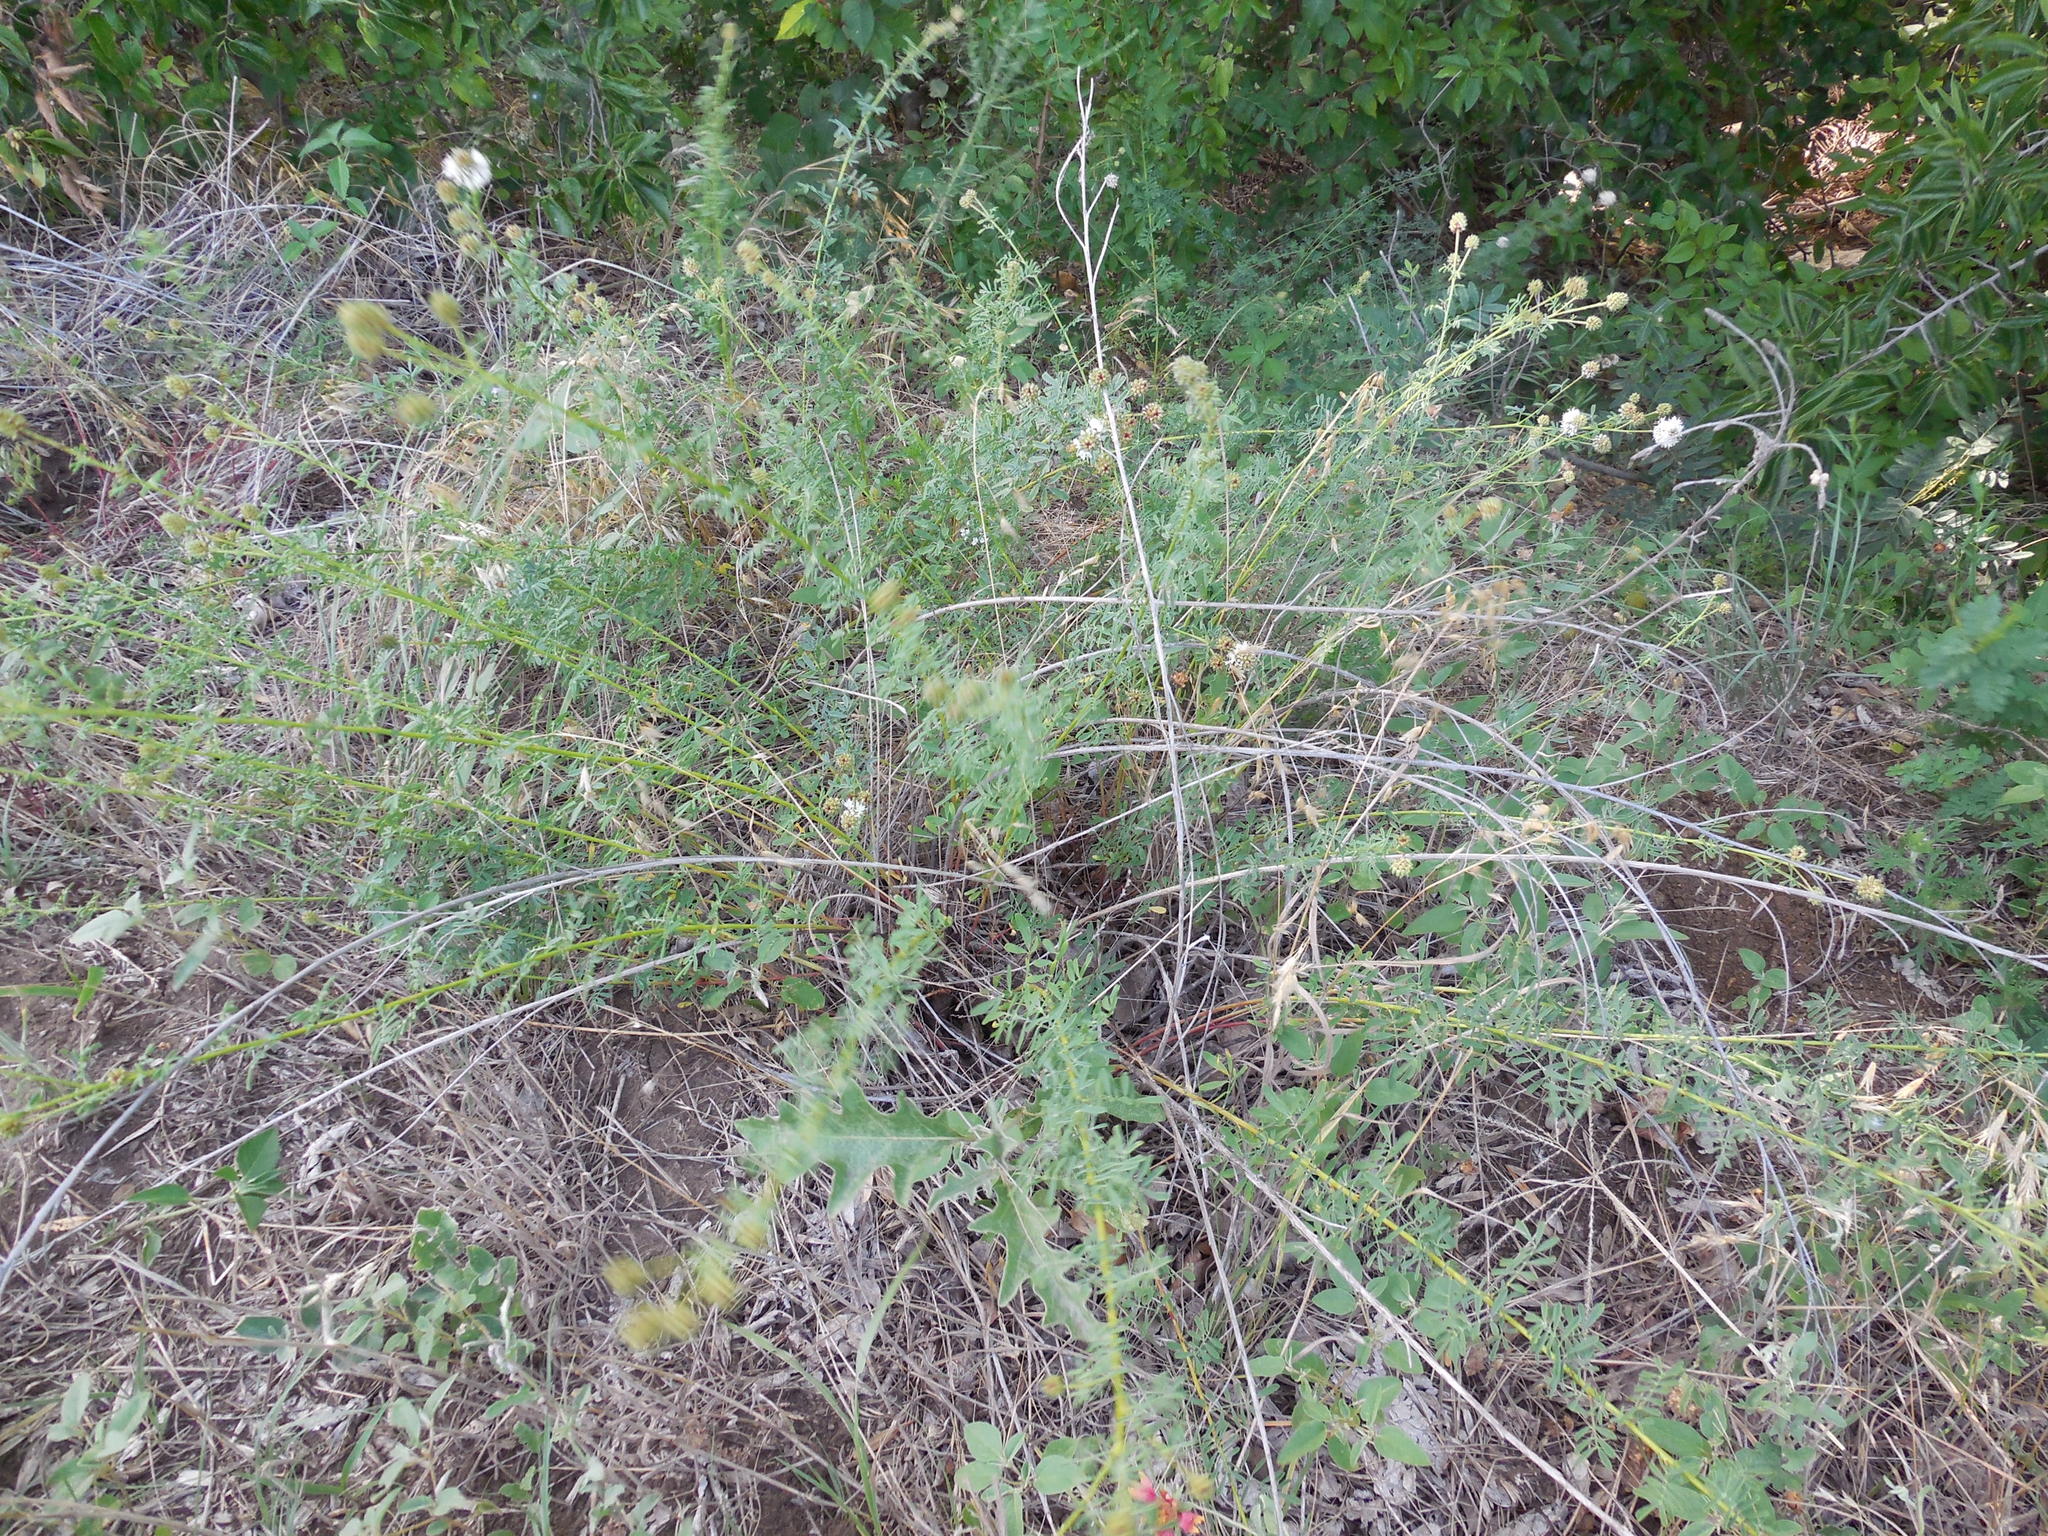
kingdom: Plantae
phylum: Tracheophyta
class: Magnoliopsida
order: Fabales
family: Fabaceae
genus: Dalea
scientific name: Dalea multiflora
